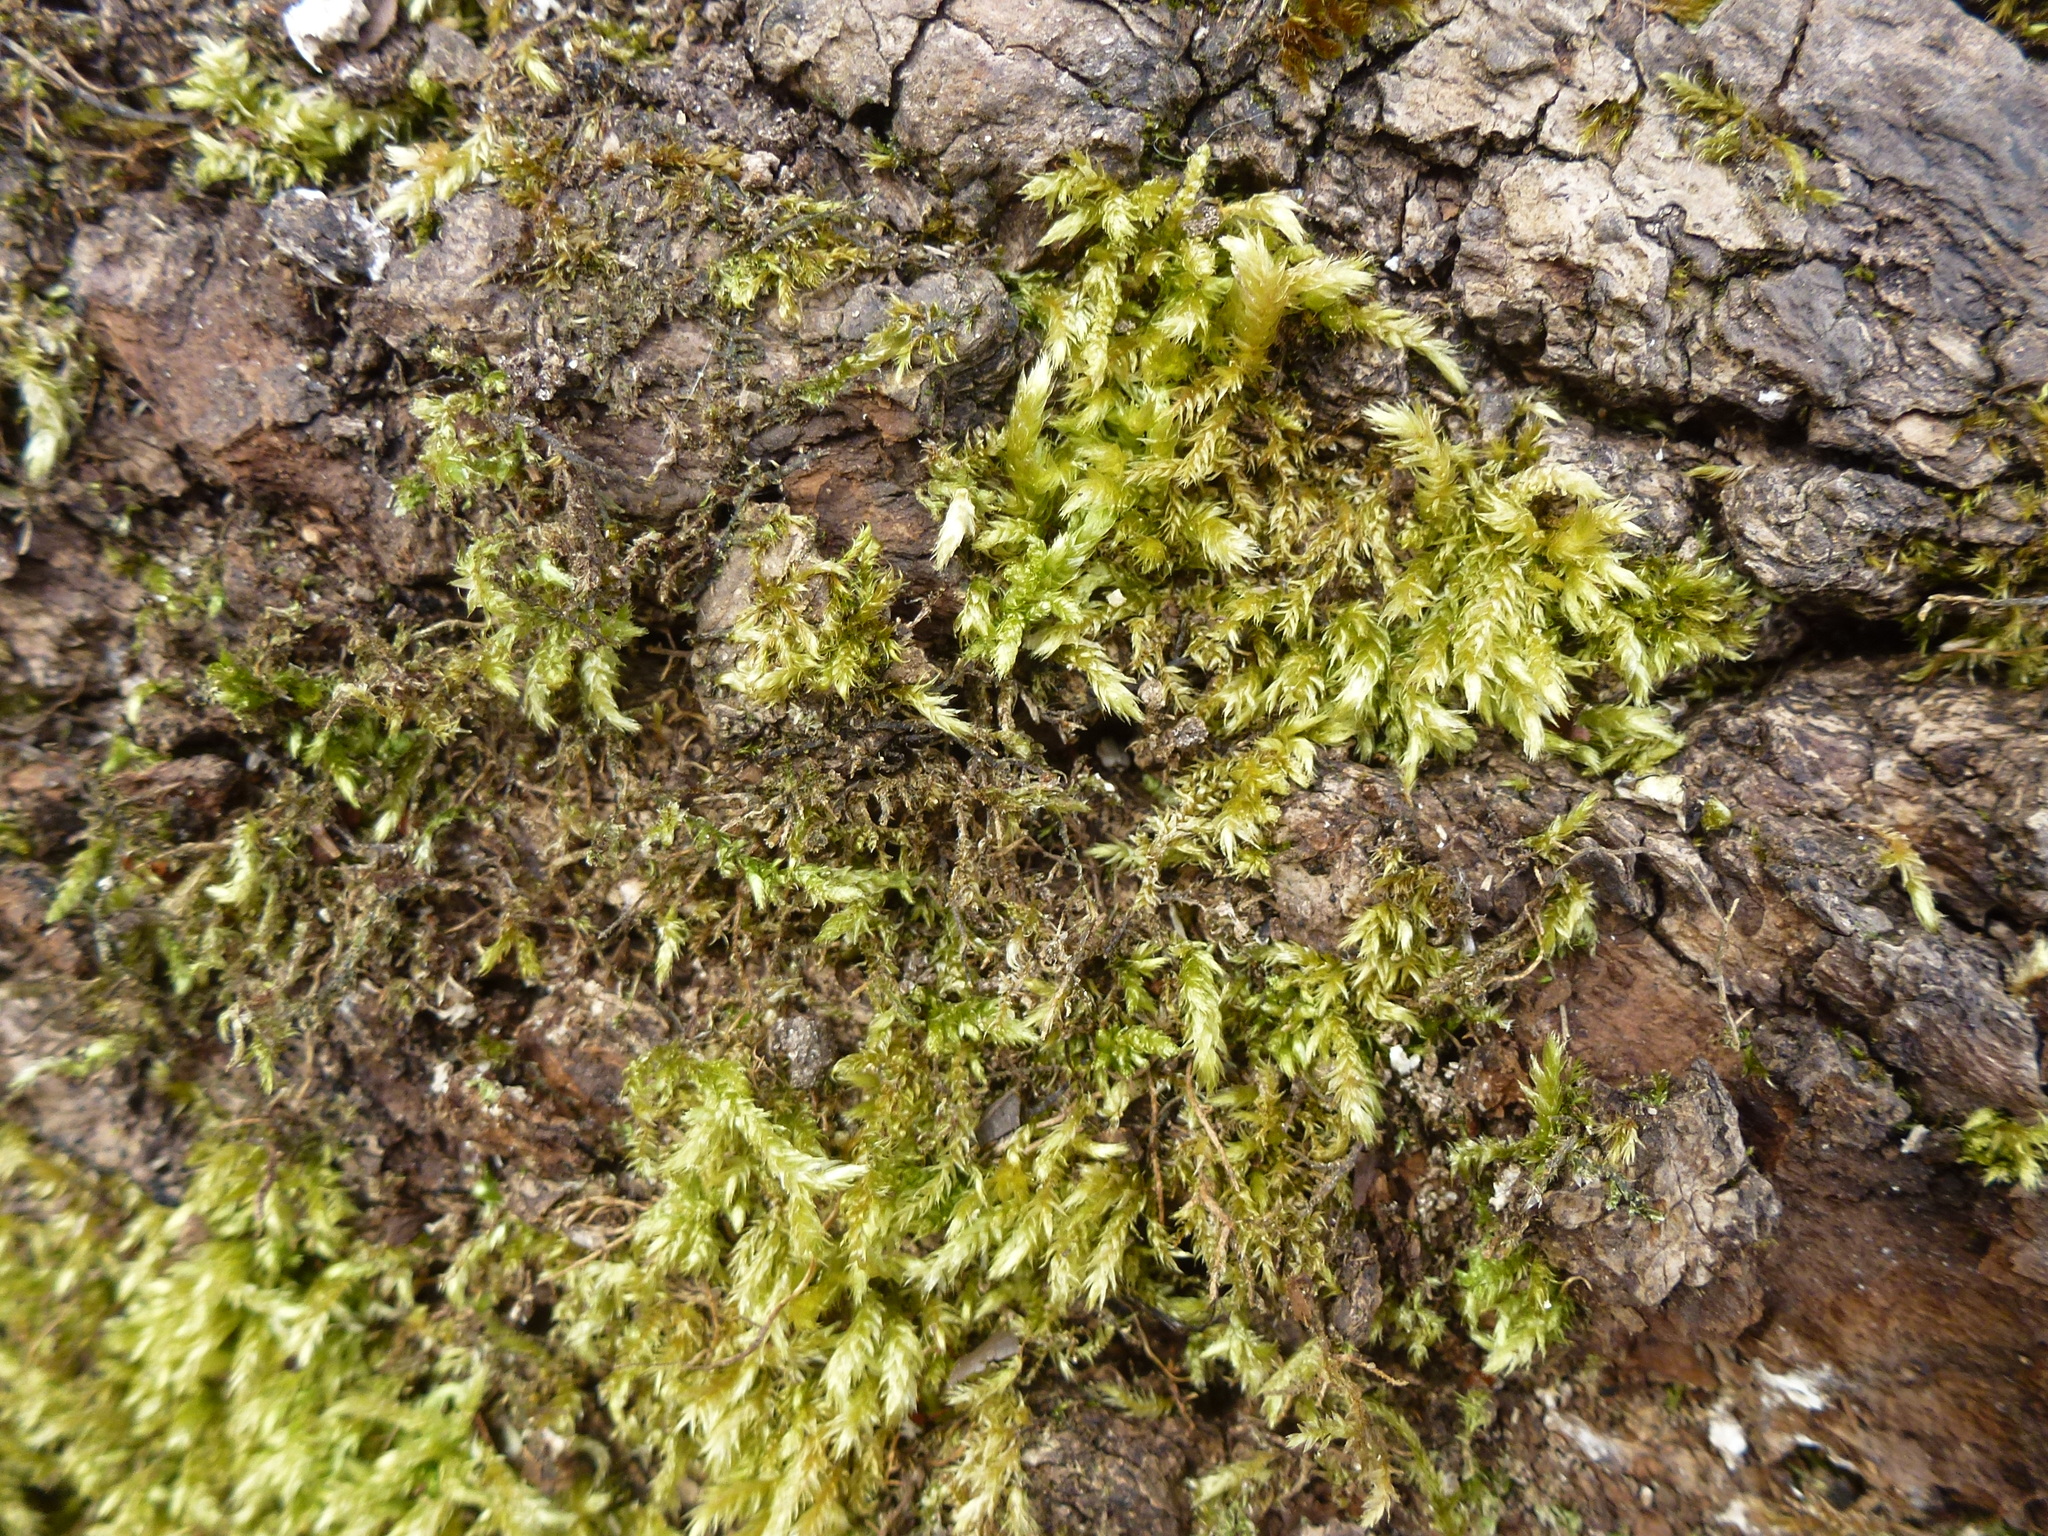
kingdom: Plantae
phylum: Bryophyta
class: Bryopsida
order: Hypnales
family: Brachytheciaceae
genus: Brachythecium
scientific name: Brachythecium rutabulum
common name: Rough-stalked feather-moss
